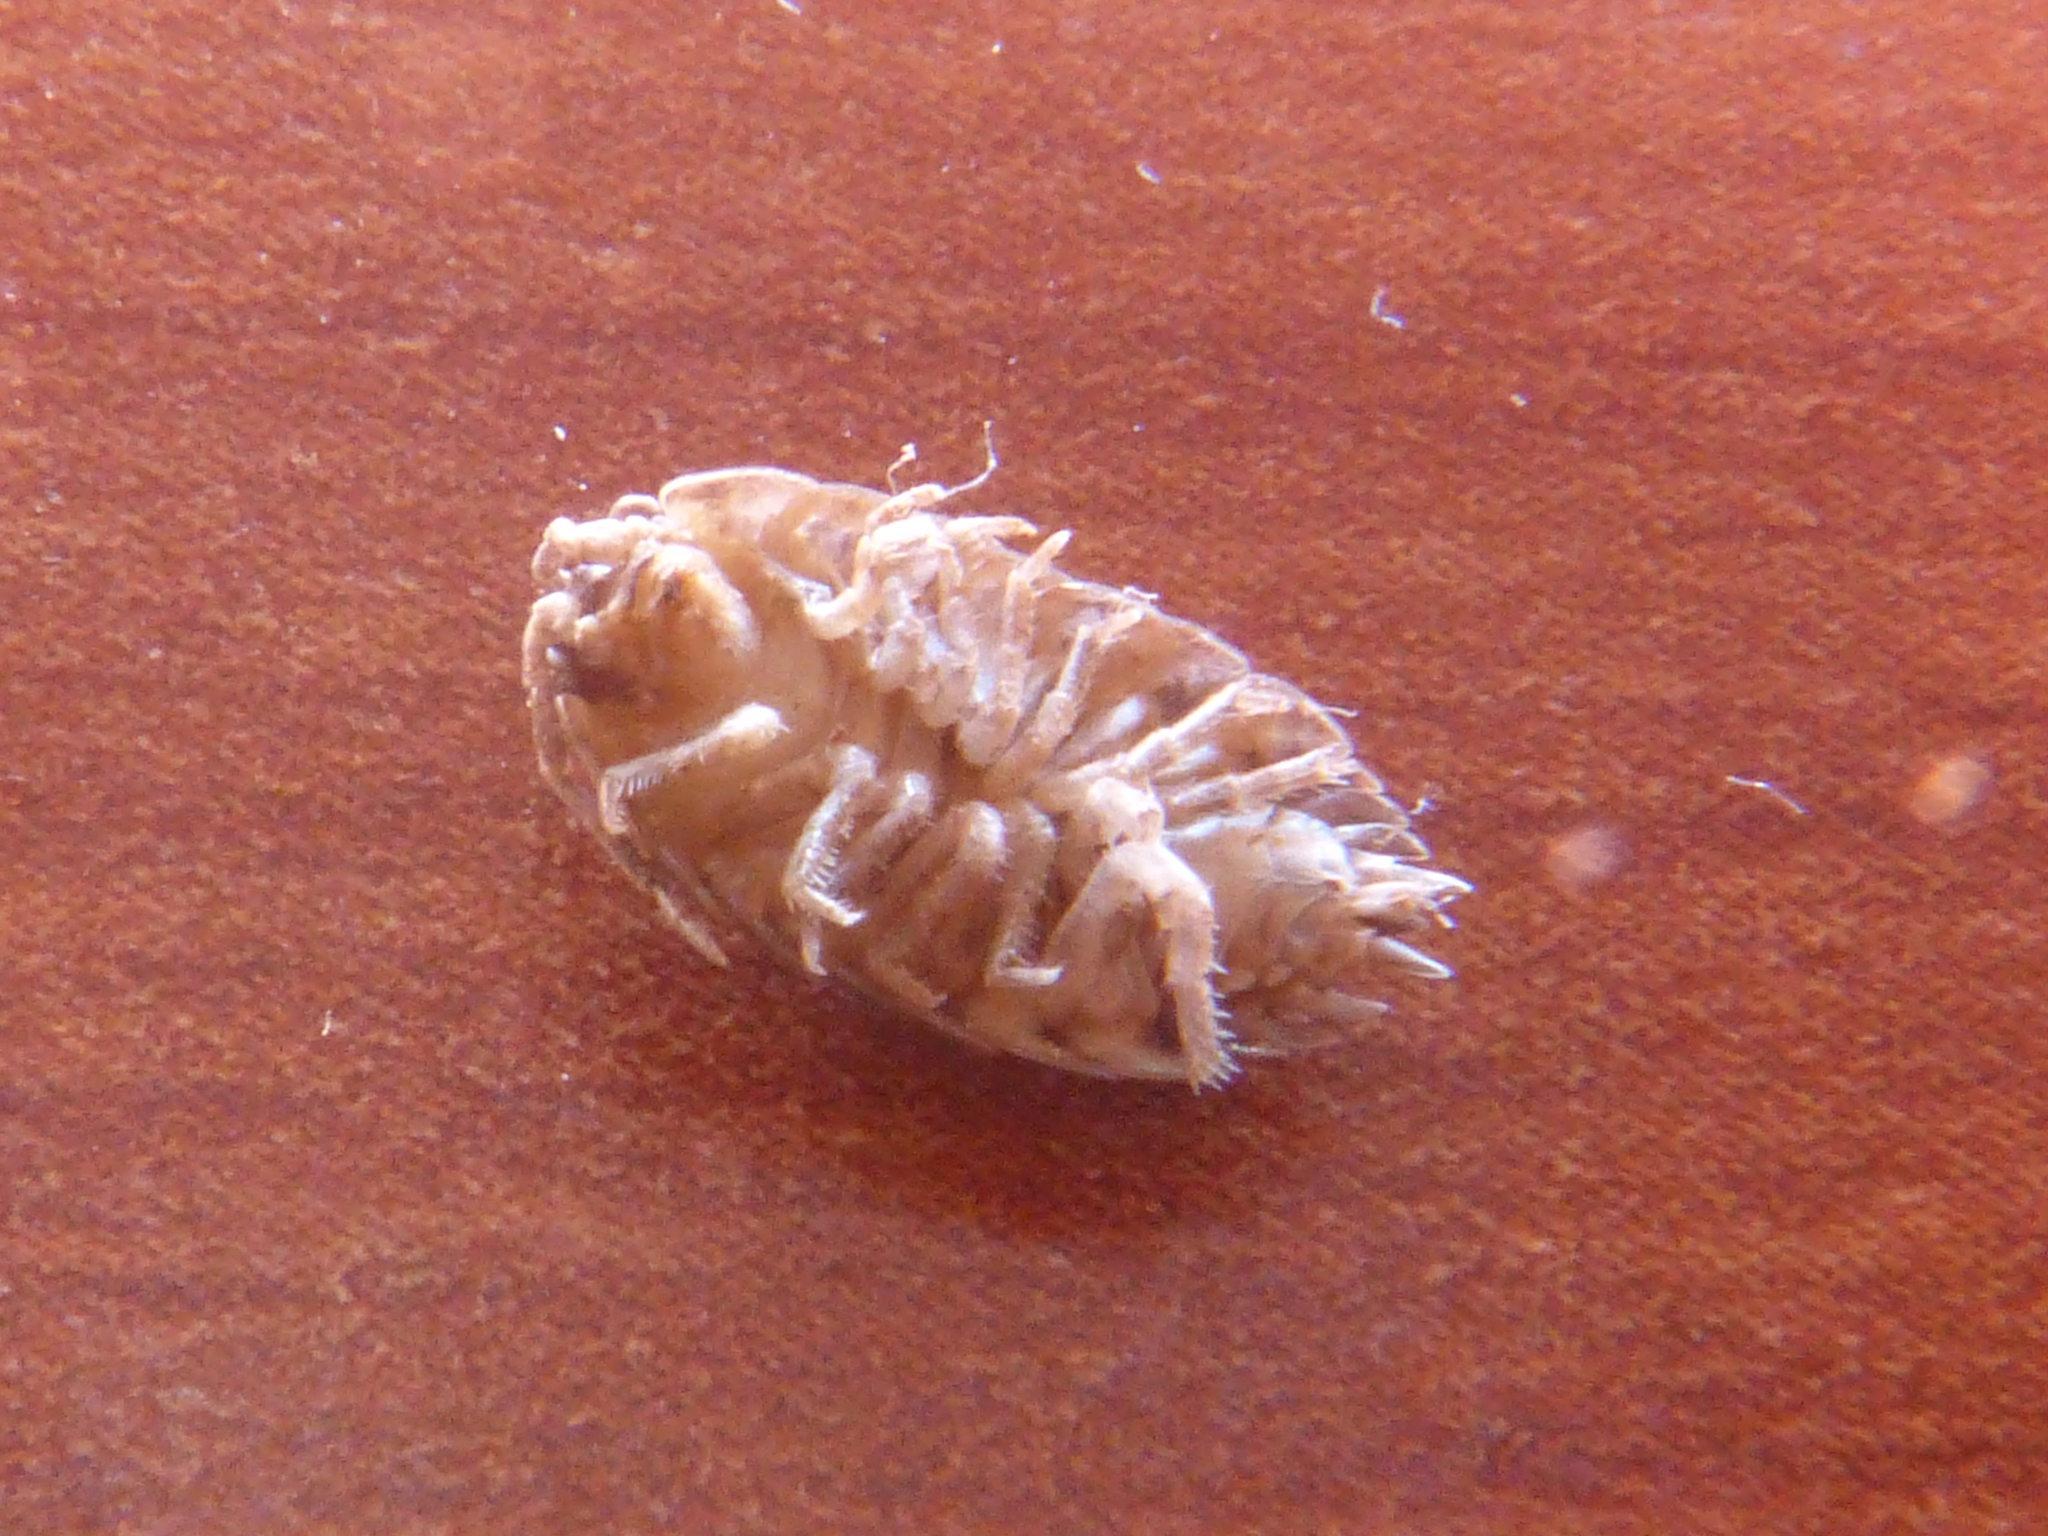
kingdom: Animalia
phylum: Arthropoda
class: Malacostraca
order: Isopoda
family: Trachelipodidae
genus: Trachelipus
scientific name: Trachelipus razzautii
